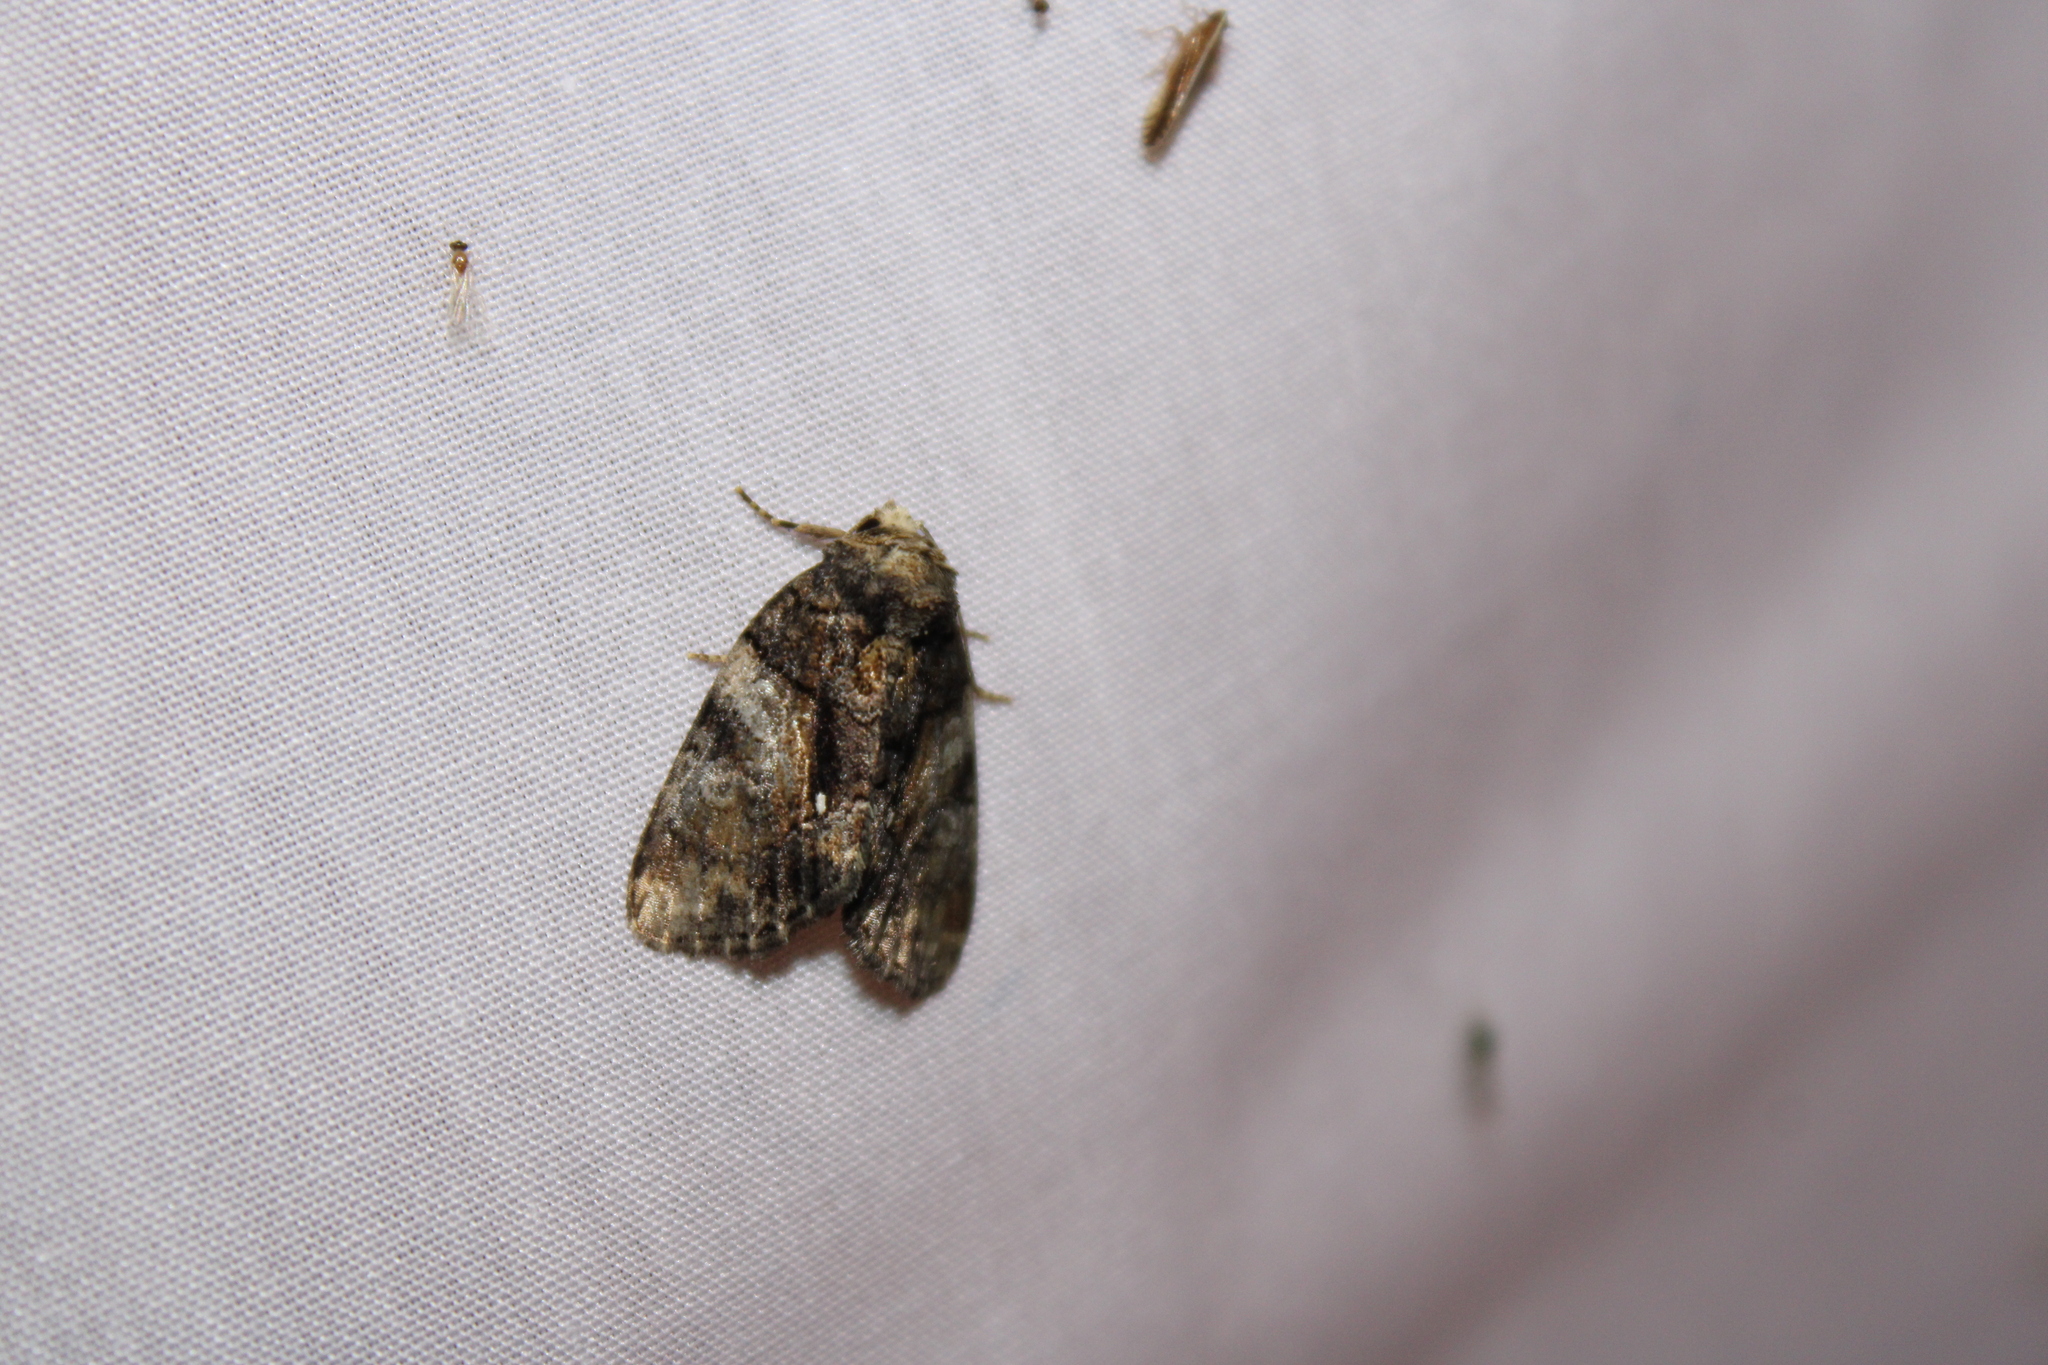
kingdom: Animalia
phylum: Arthropoda
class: Insecta
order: Lepidoptera
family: Noctuidae
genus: Chytonix
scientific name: Chytonix palliatricula
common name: Cloaked marvel
